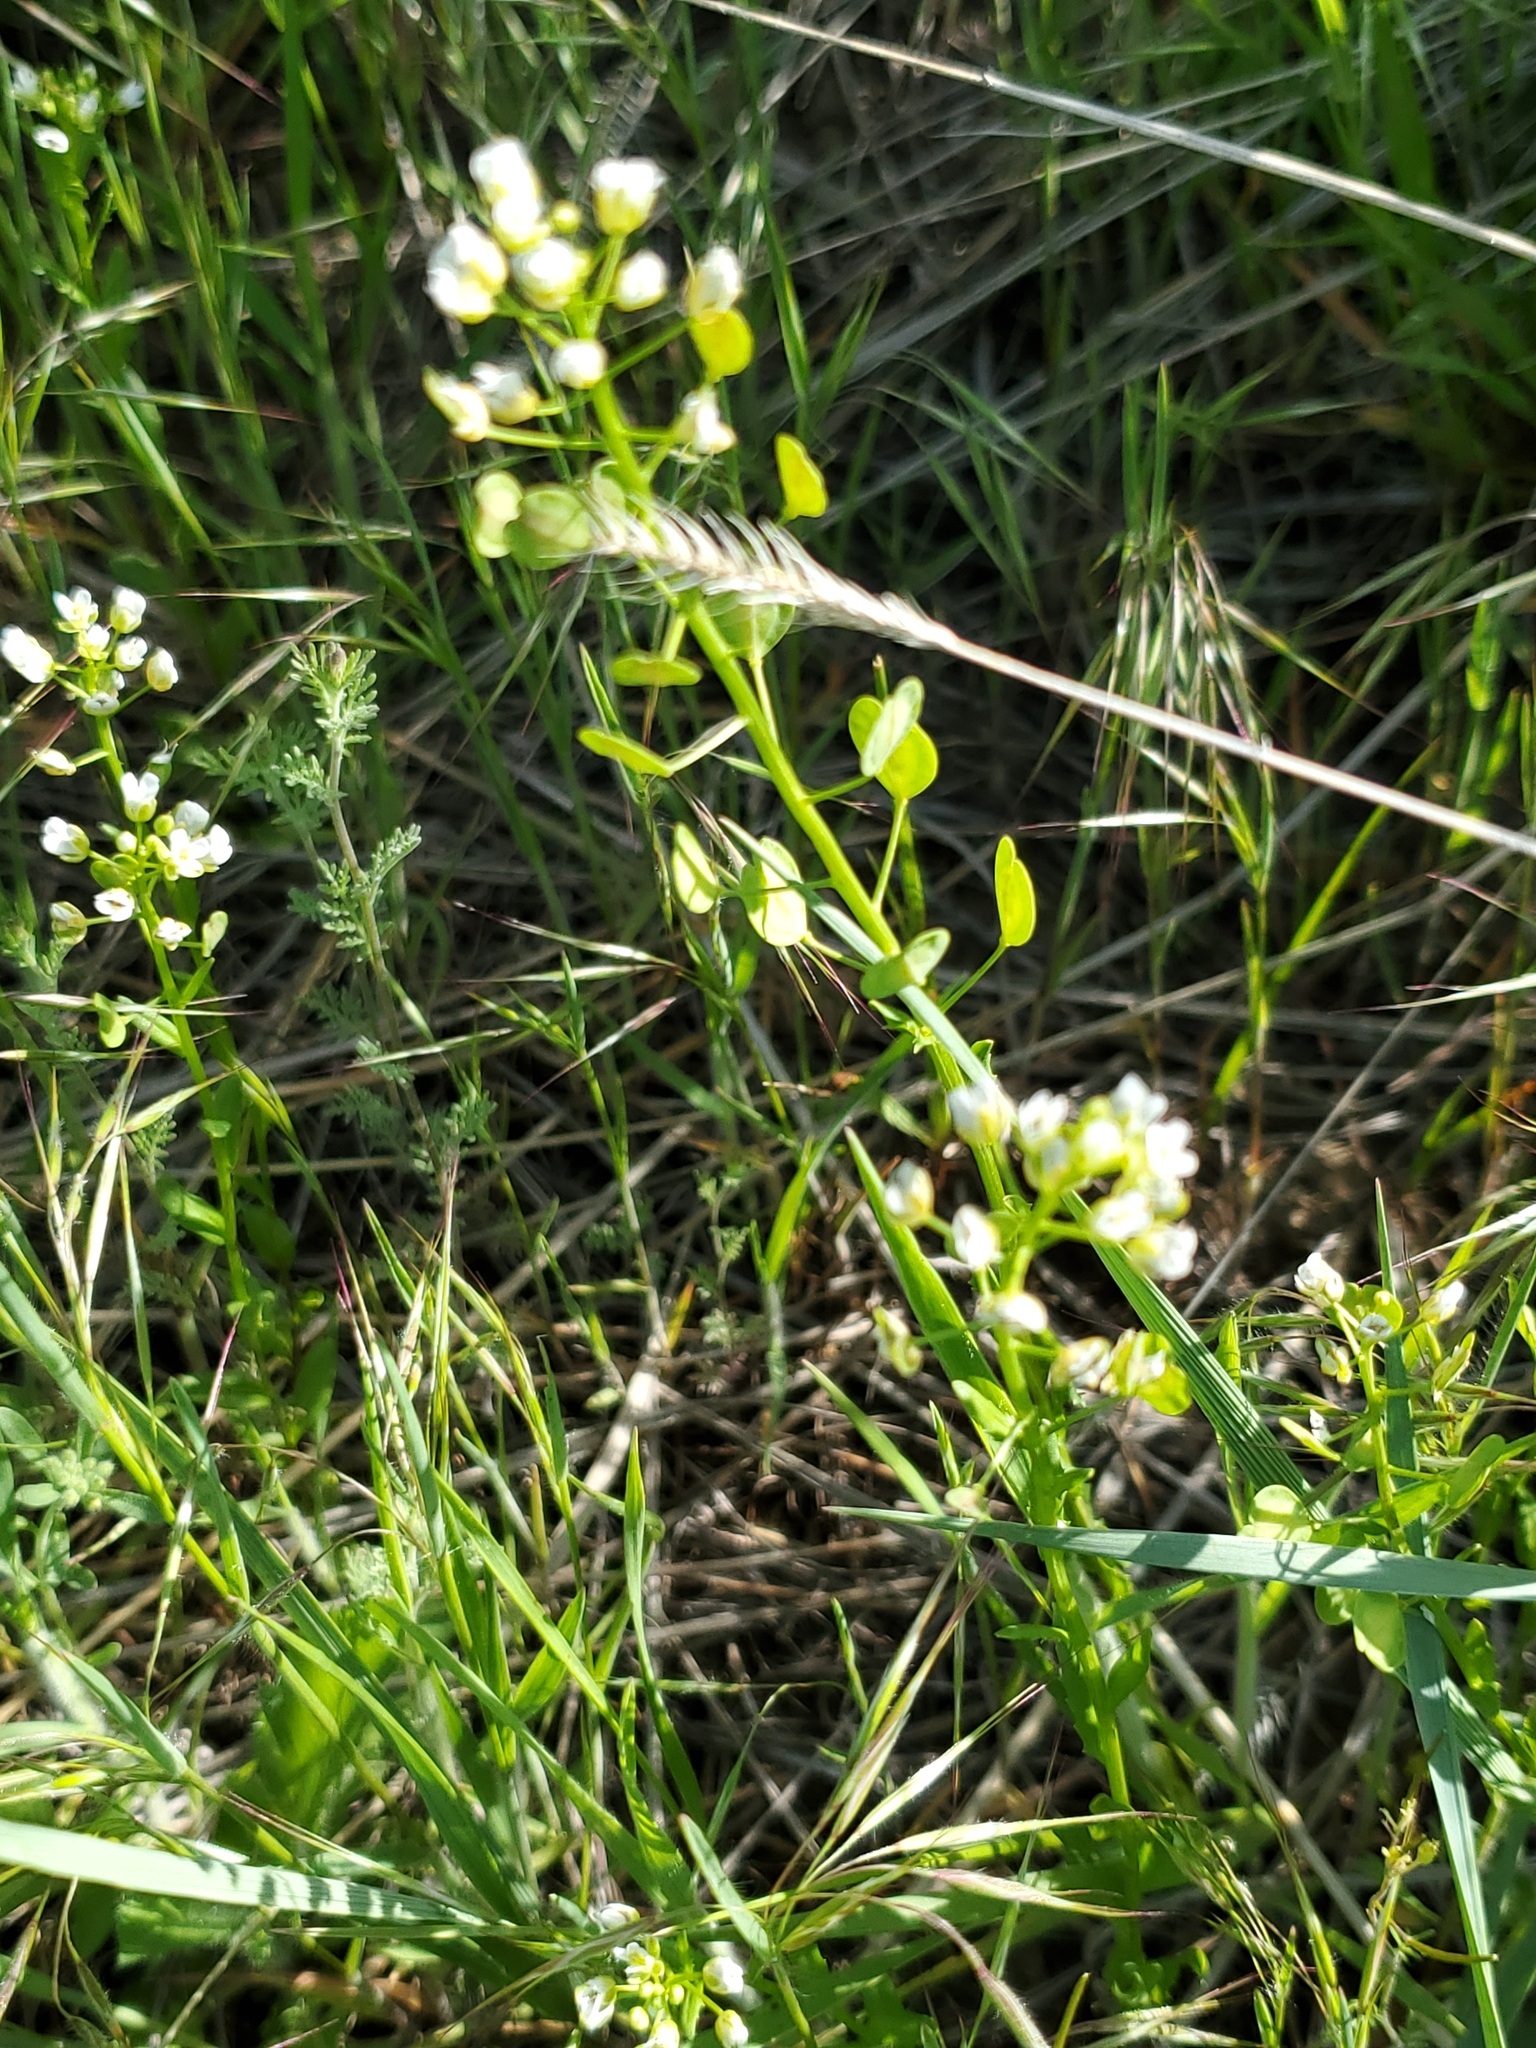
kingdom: Plantae
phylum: Tracheophyta
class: Magnoliopsida
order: Brassicales
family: Brassicaceae
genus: Thlaspi
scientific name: Thlaspi arvense
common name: Field pennycress
